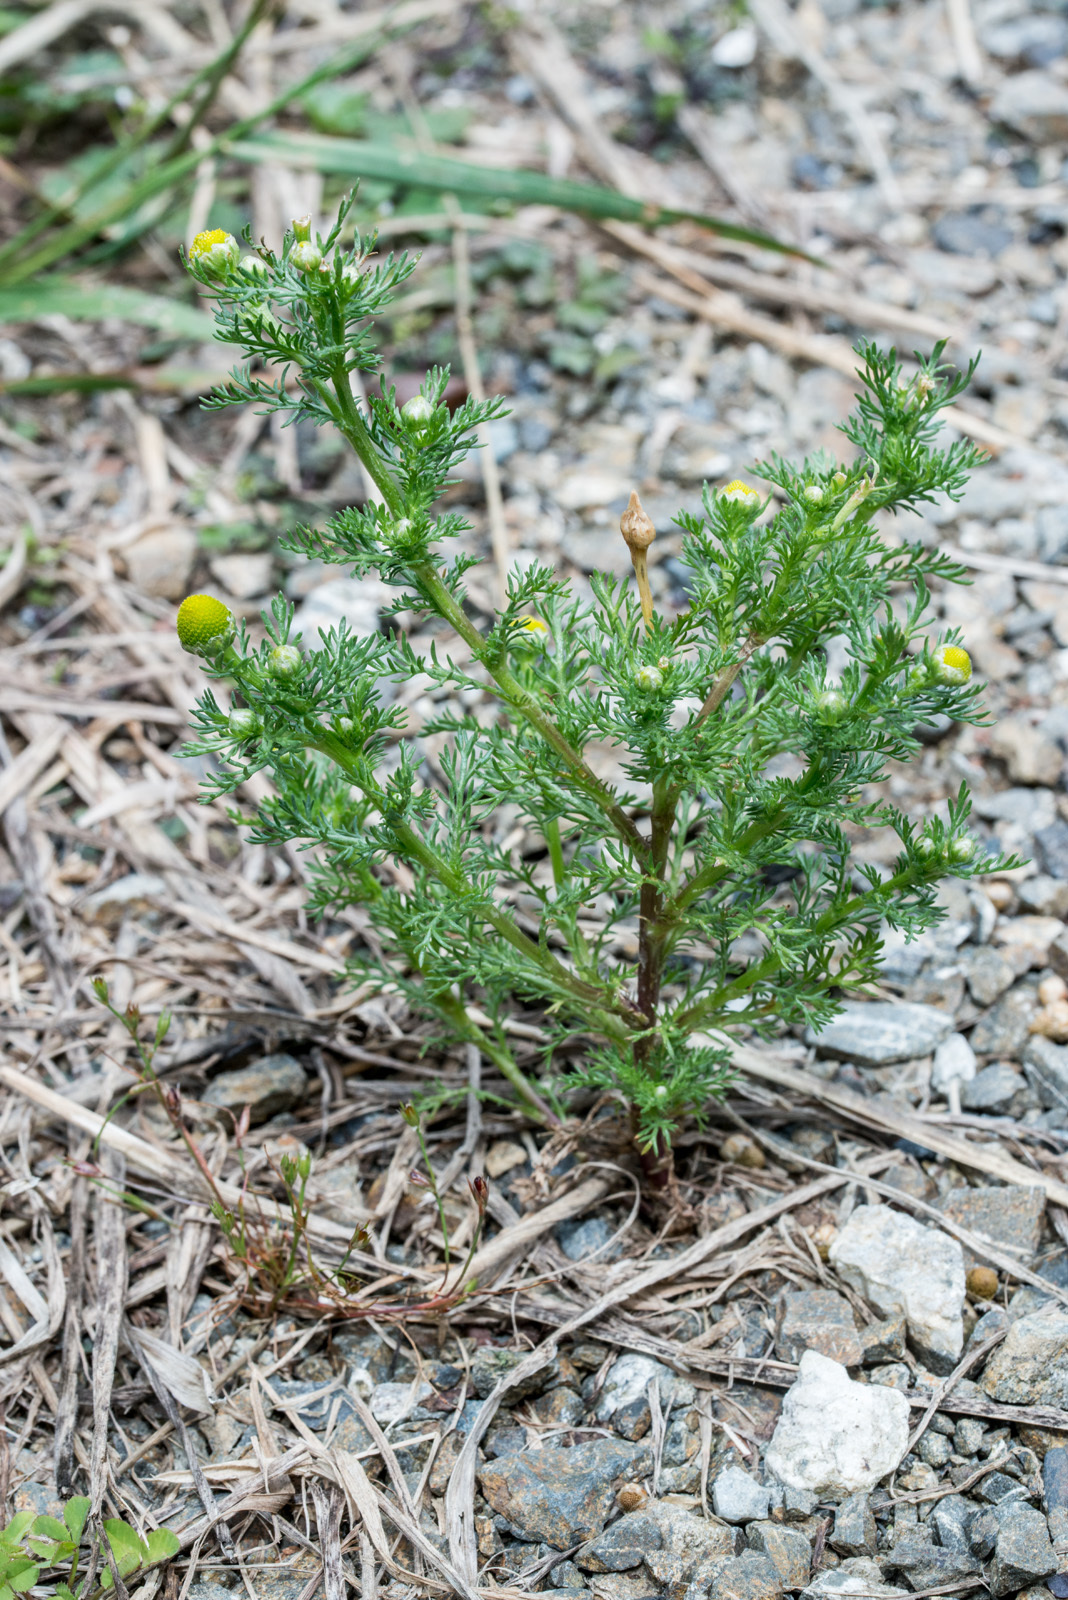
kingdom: Plantae
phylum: Tracheophyta
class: Magnoliopsida
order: Asterales
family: Asteraceae
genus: Matricaria
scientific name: Matricaria discoidea
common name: Disc mayweed
